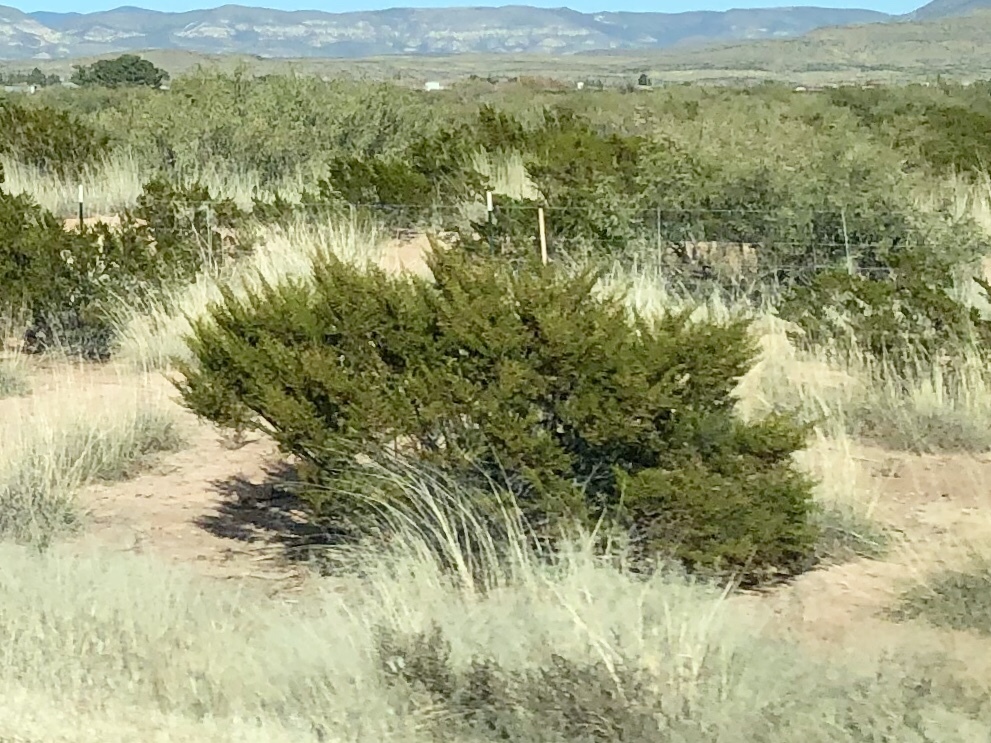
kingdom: Plantae
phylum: Tracheophyta
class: Magnoliopsida
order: Zygophyllales
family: Zygophyllaceae
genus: Larrea
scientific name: Larrea tridentata
